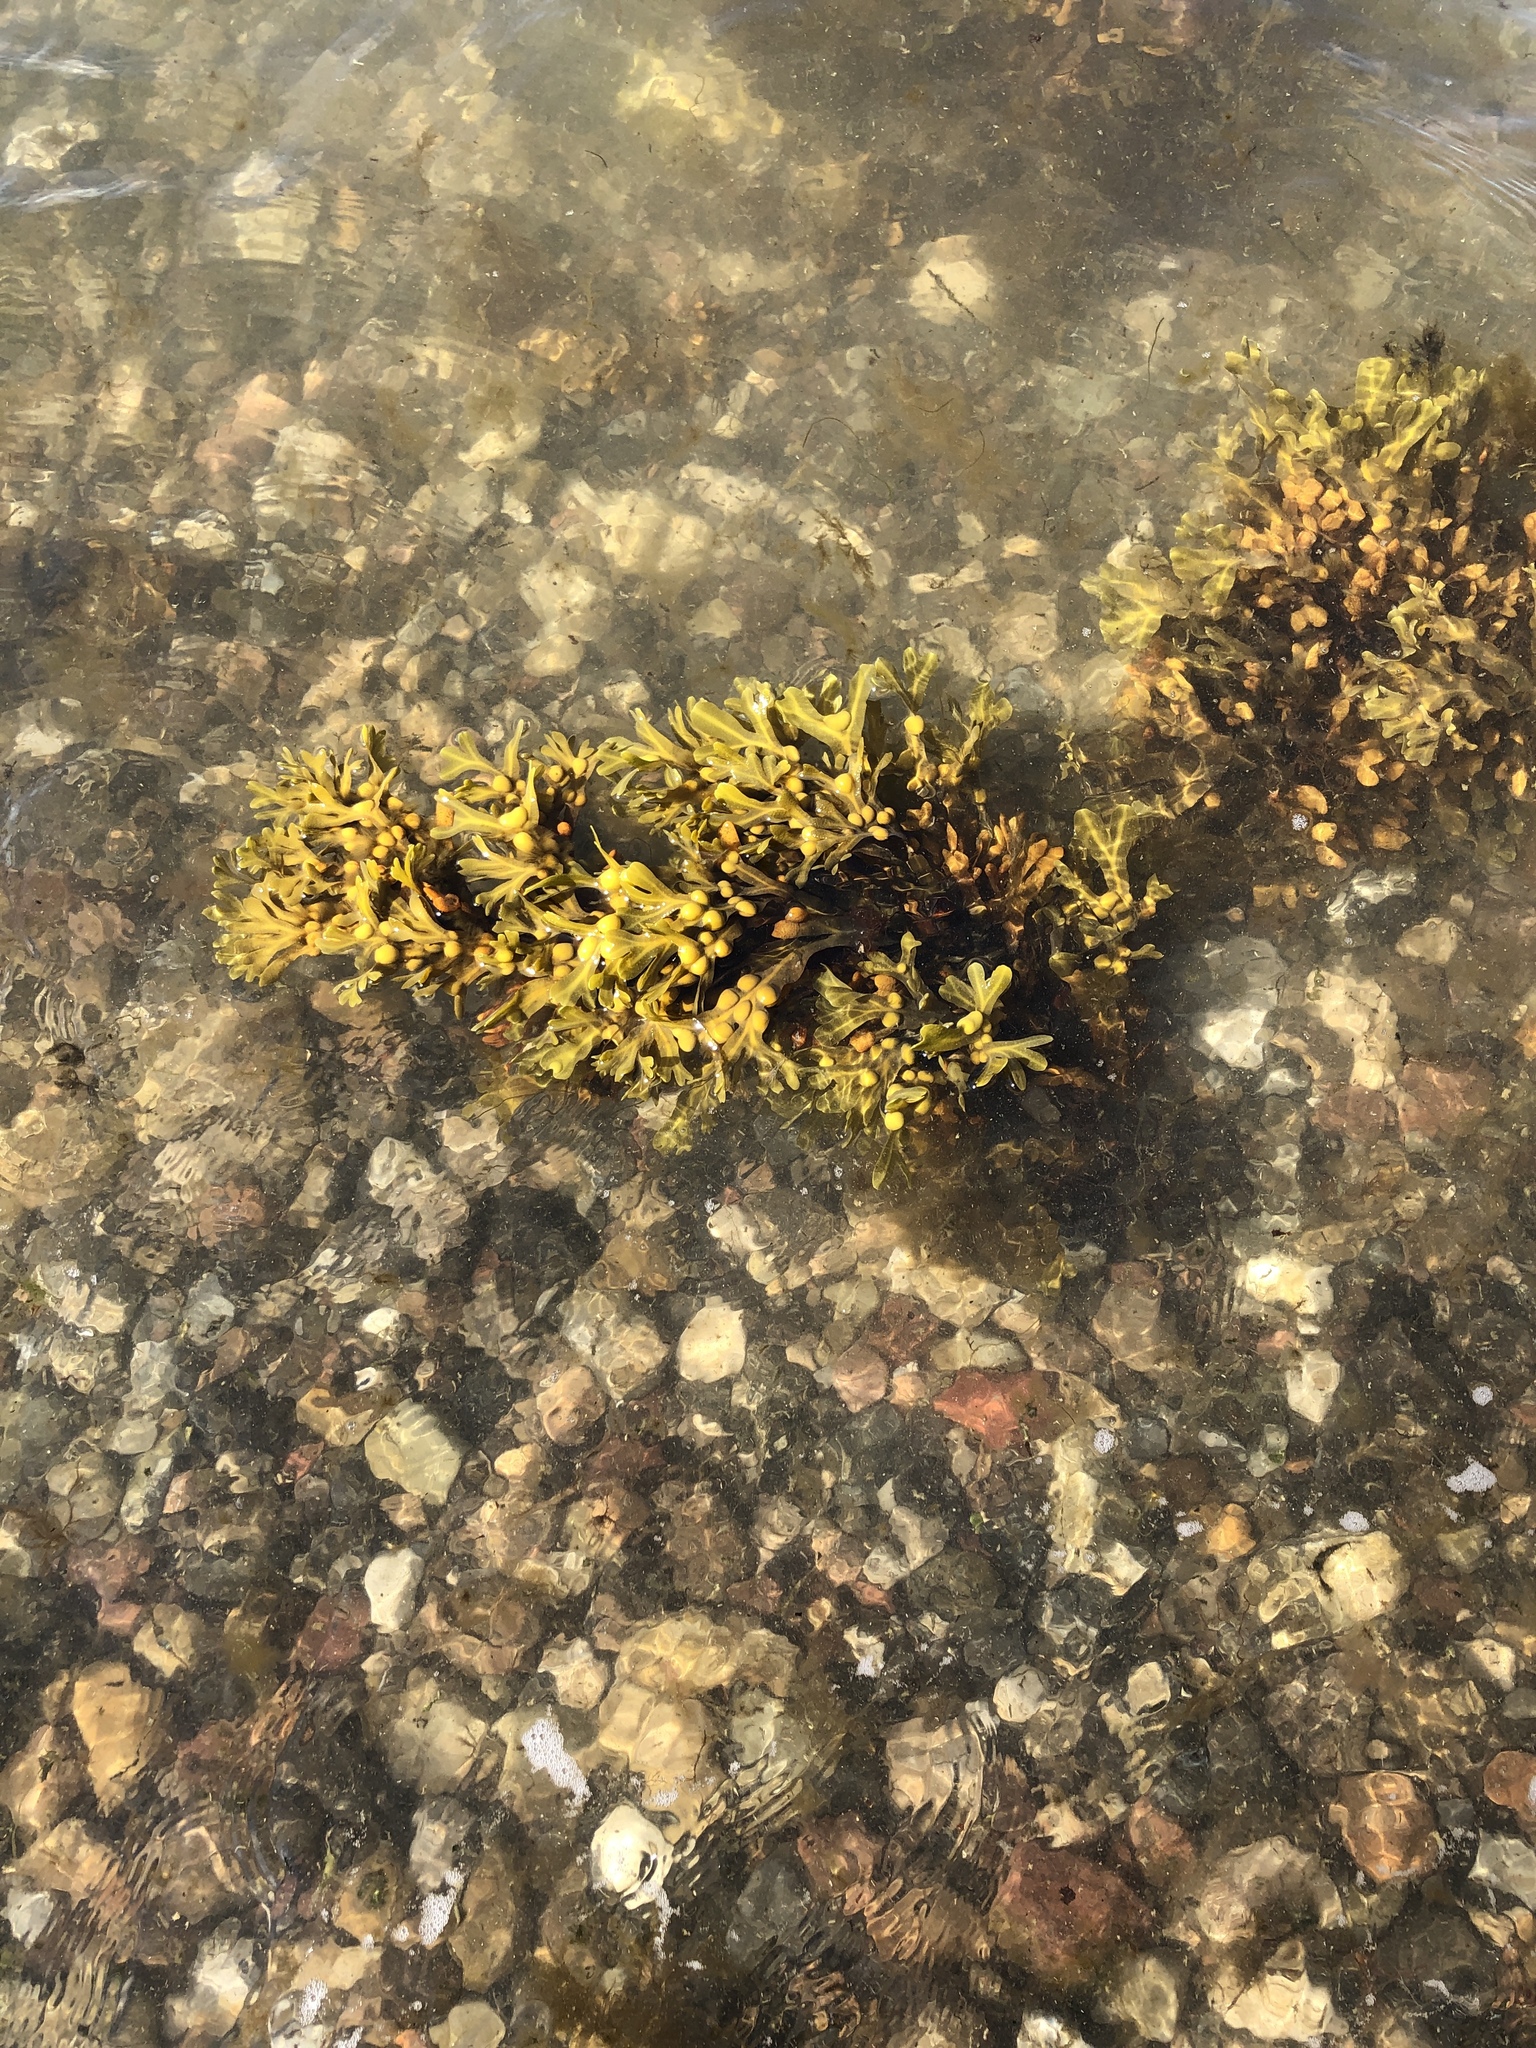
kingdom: Chromista
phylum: Ochrophyta
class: Phaeophyceae
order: Fucales
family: Fucaceae
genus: Fucus
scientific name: Fucus vesiculosus
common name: Bladder wrack
